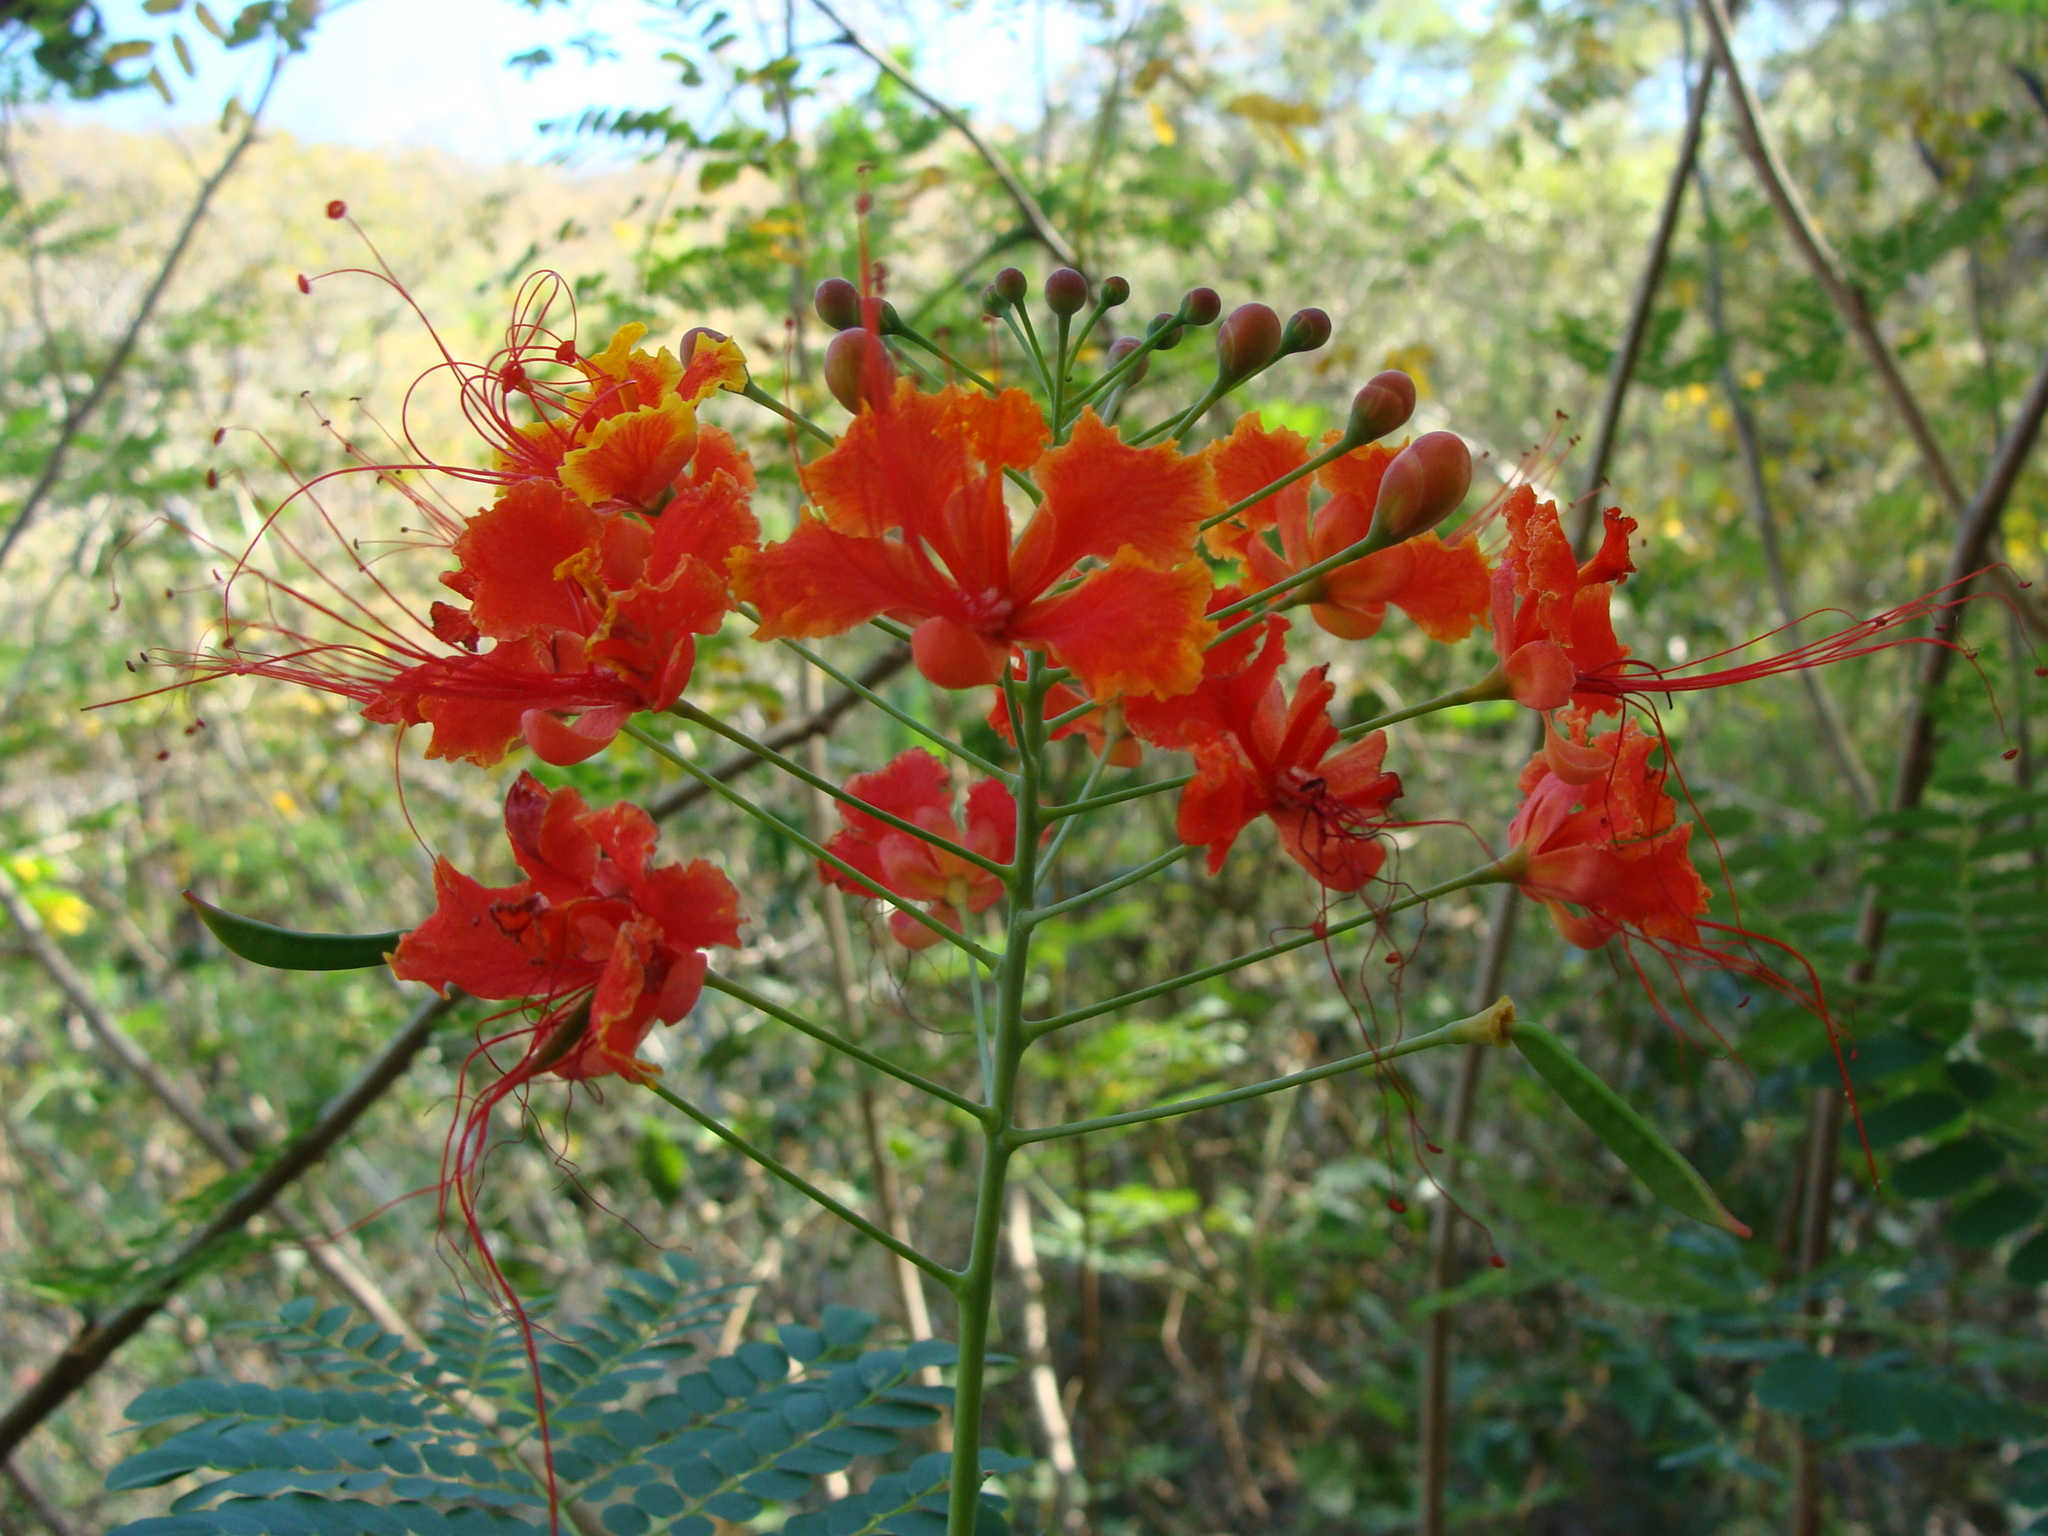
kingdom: Plantae
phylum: Tracheophyta
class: Magnoliopsida
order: Fabales
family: Fabaceae
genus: Caesalpinia
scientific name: Caesalpinia pulcherrima
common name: Pride-of-barbados
